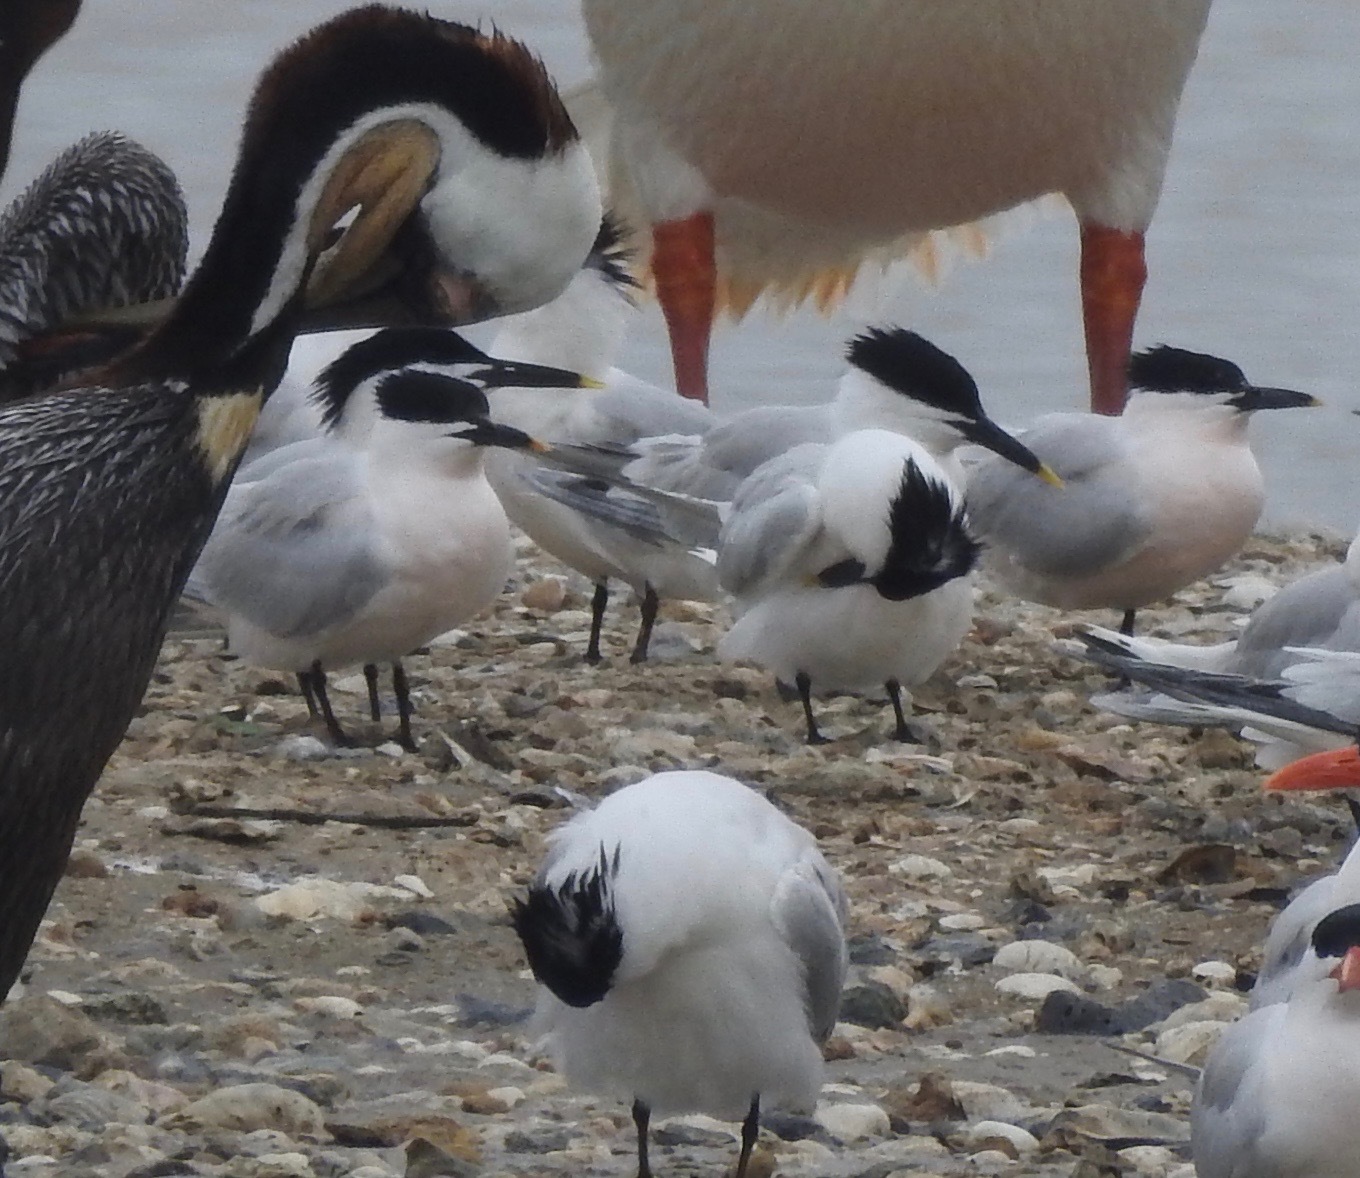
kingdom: Animalia
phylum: Chordata
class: Aves
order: Charadriiformes
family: Laridae
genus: Thalasseus
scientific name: Thalasseus sandvicensis
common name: Sandwich tern
